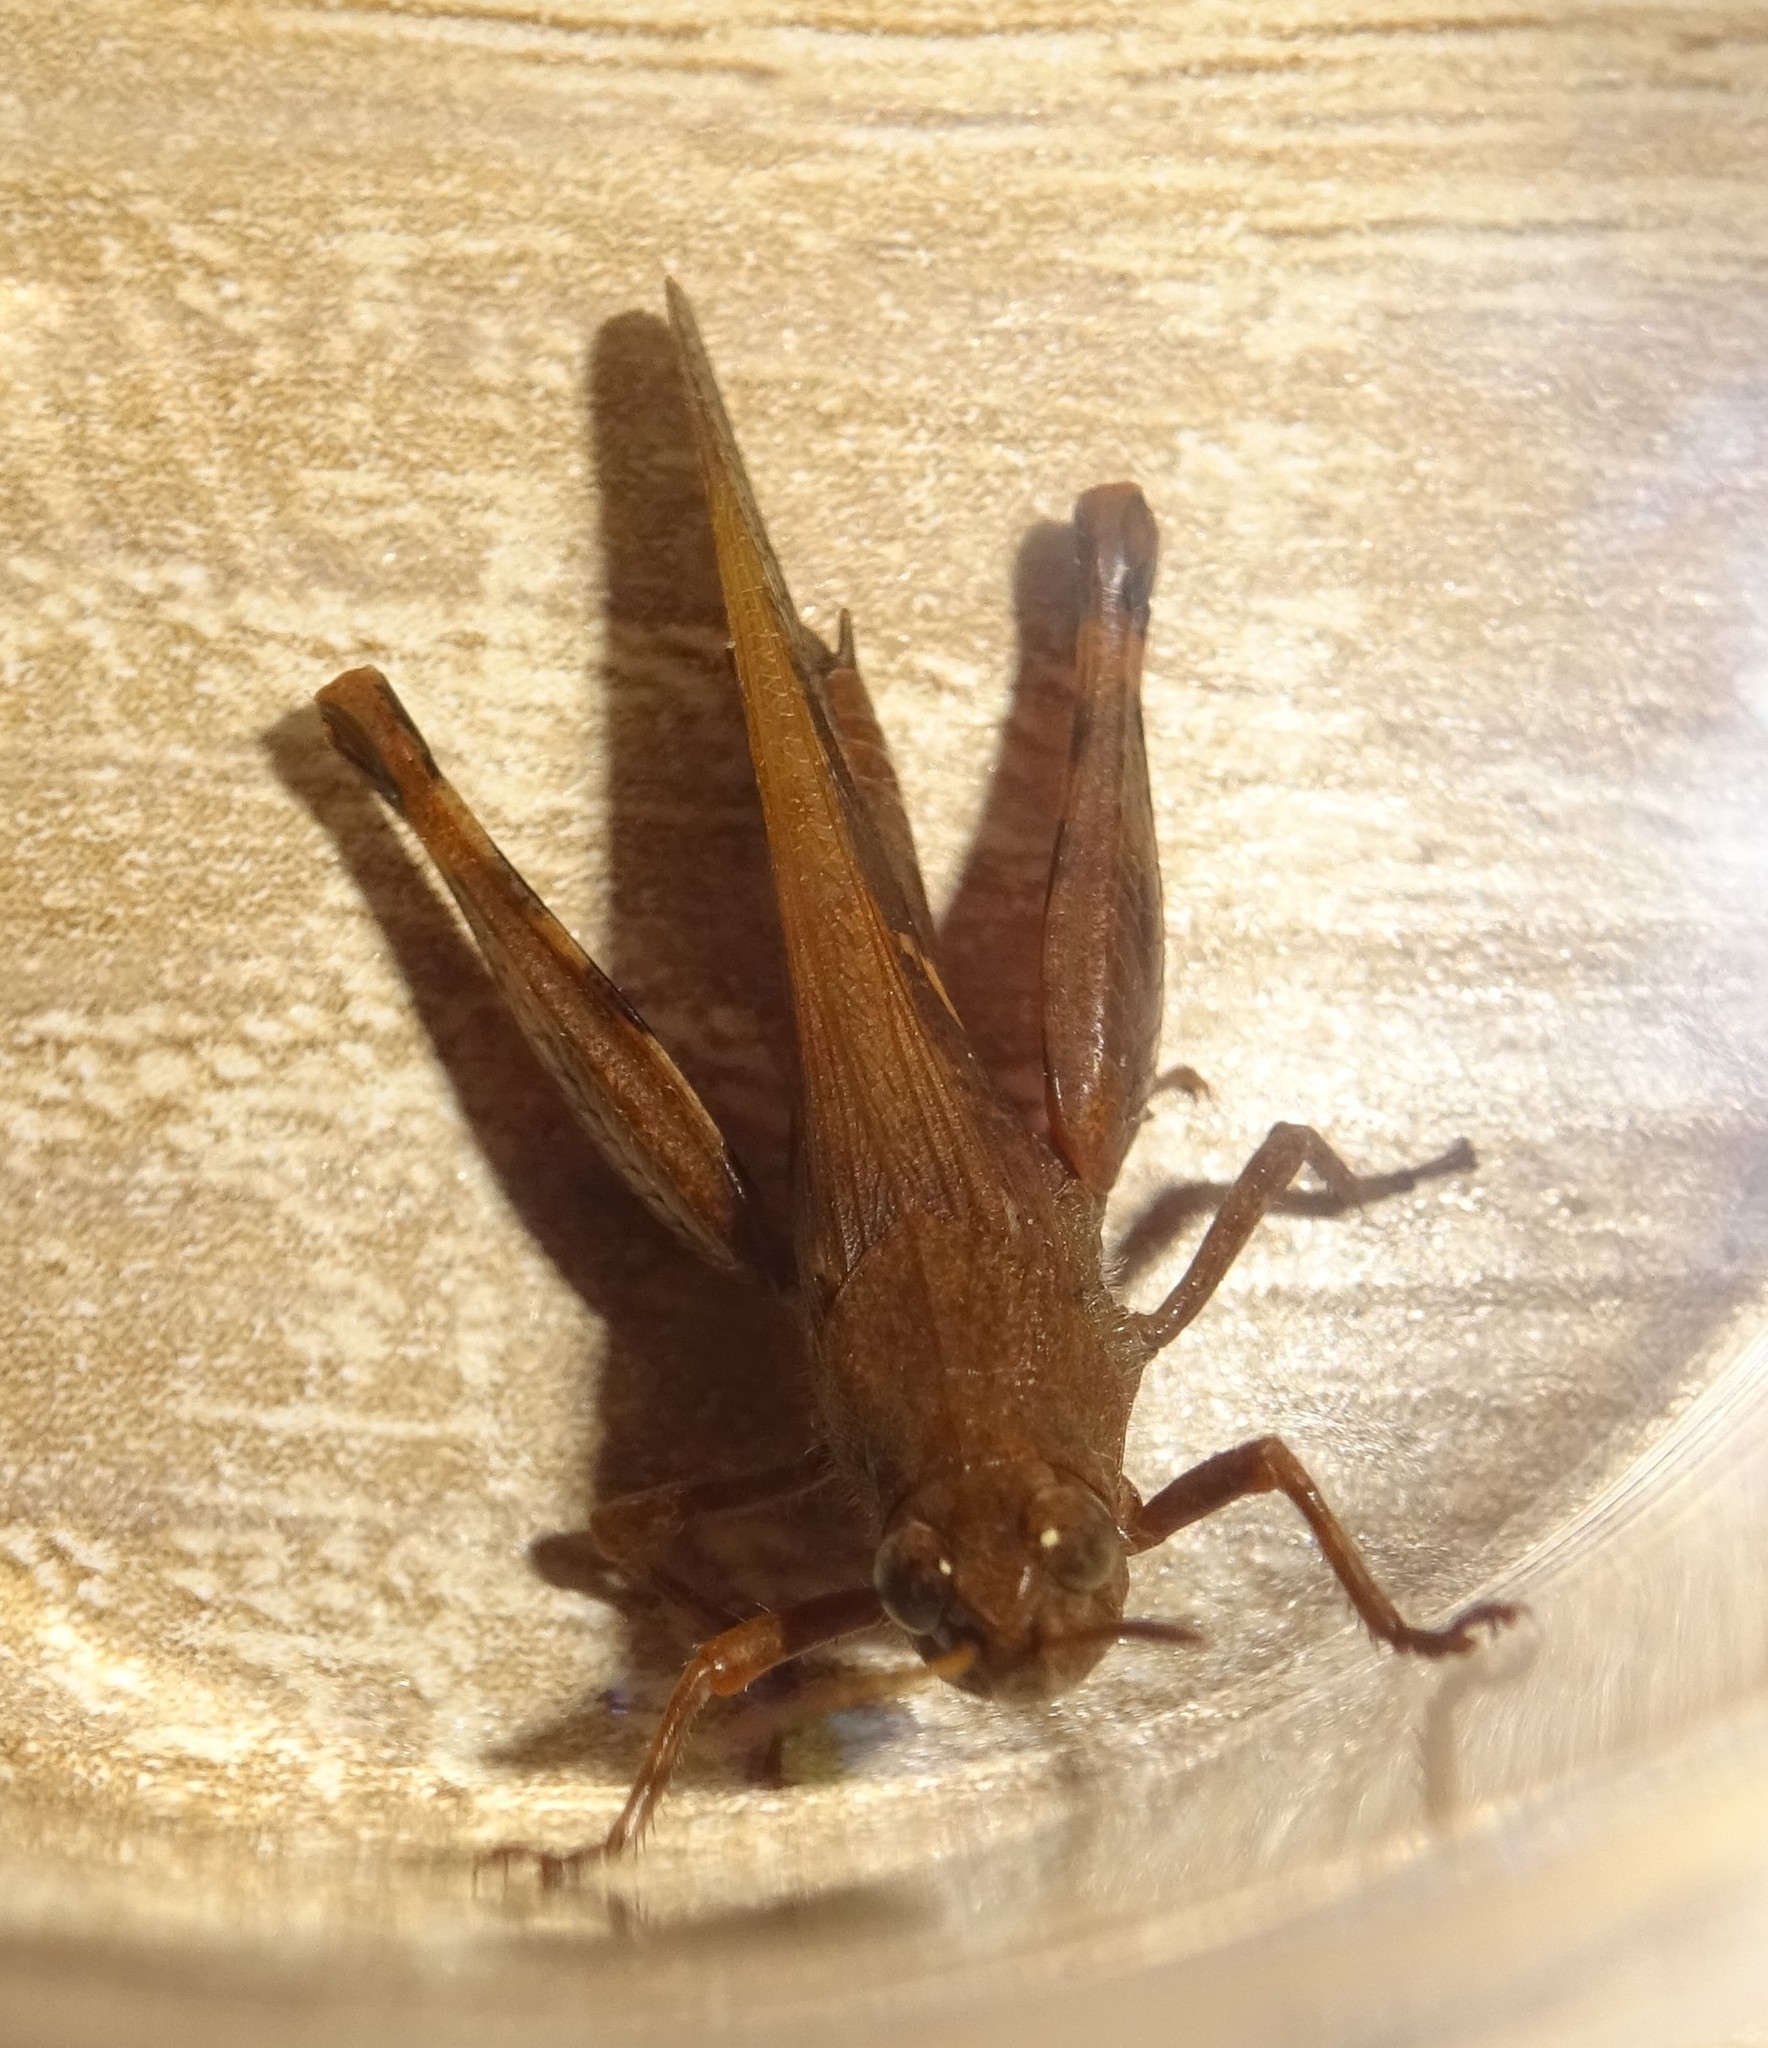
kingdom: Animalia
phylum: Arthropoda
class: Insecta
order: Orthoptera
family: Acrididae
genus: Aiolopus
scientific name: Aiolopus strepens
